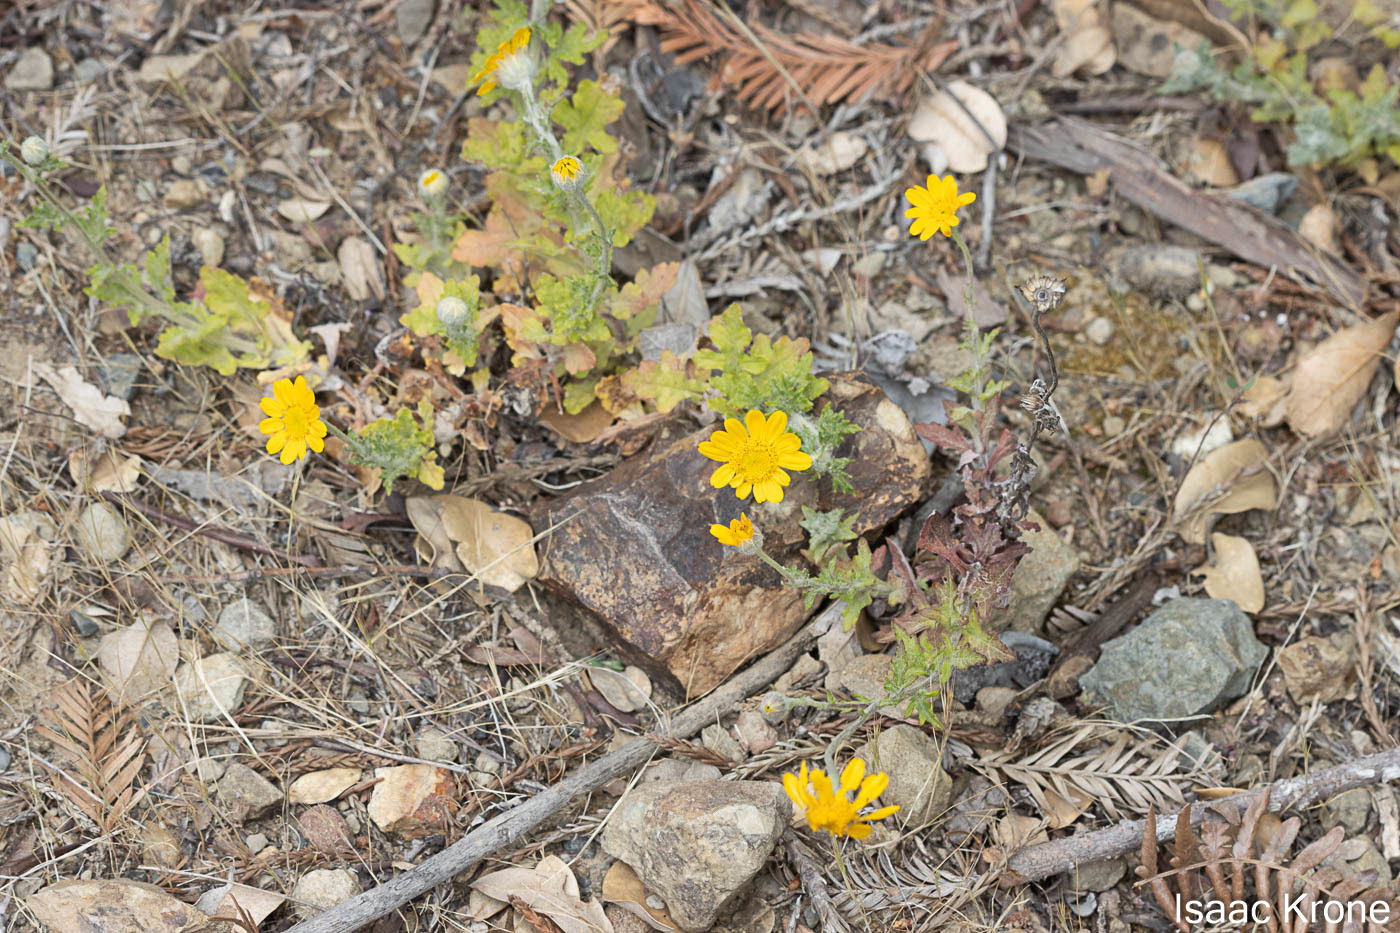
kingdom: Plantae
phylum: Tracheophyta
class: Magnoliopsida
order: Asterales
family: Asteraceae
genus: Eriophyllum
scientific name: Eriophyllum lanatum
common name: Common woolly-sunflower
